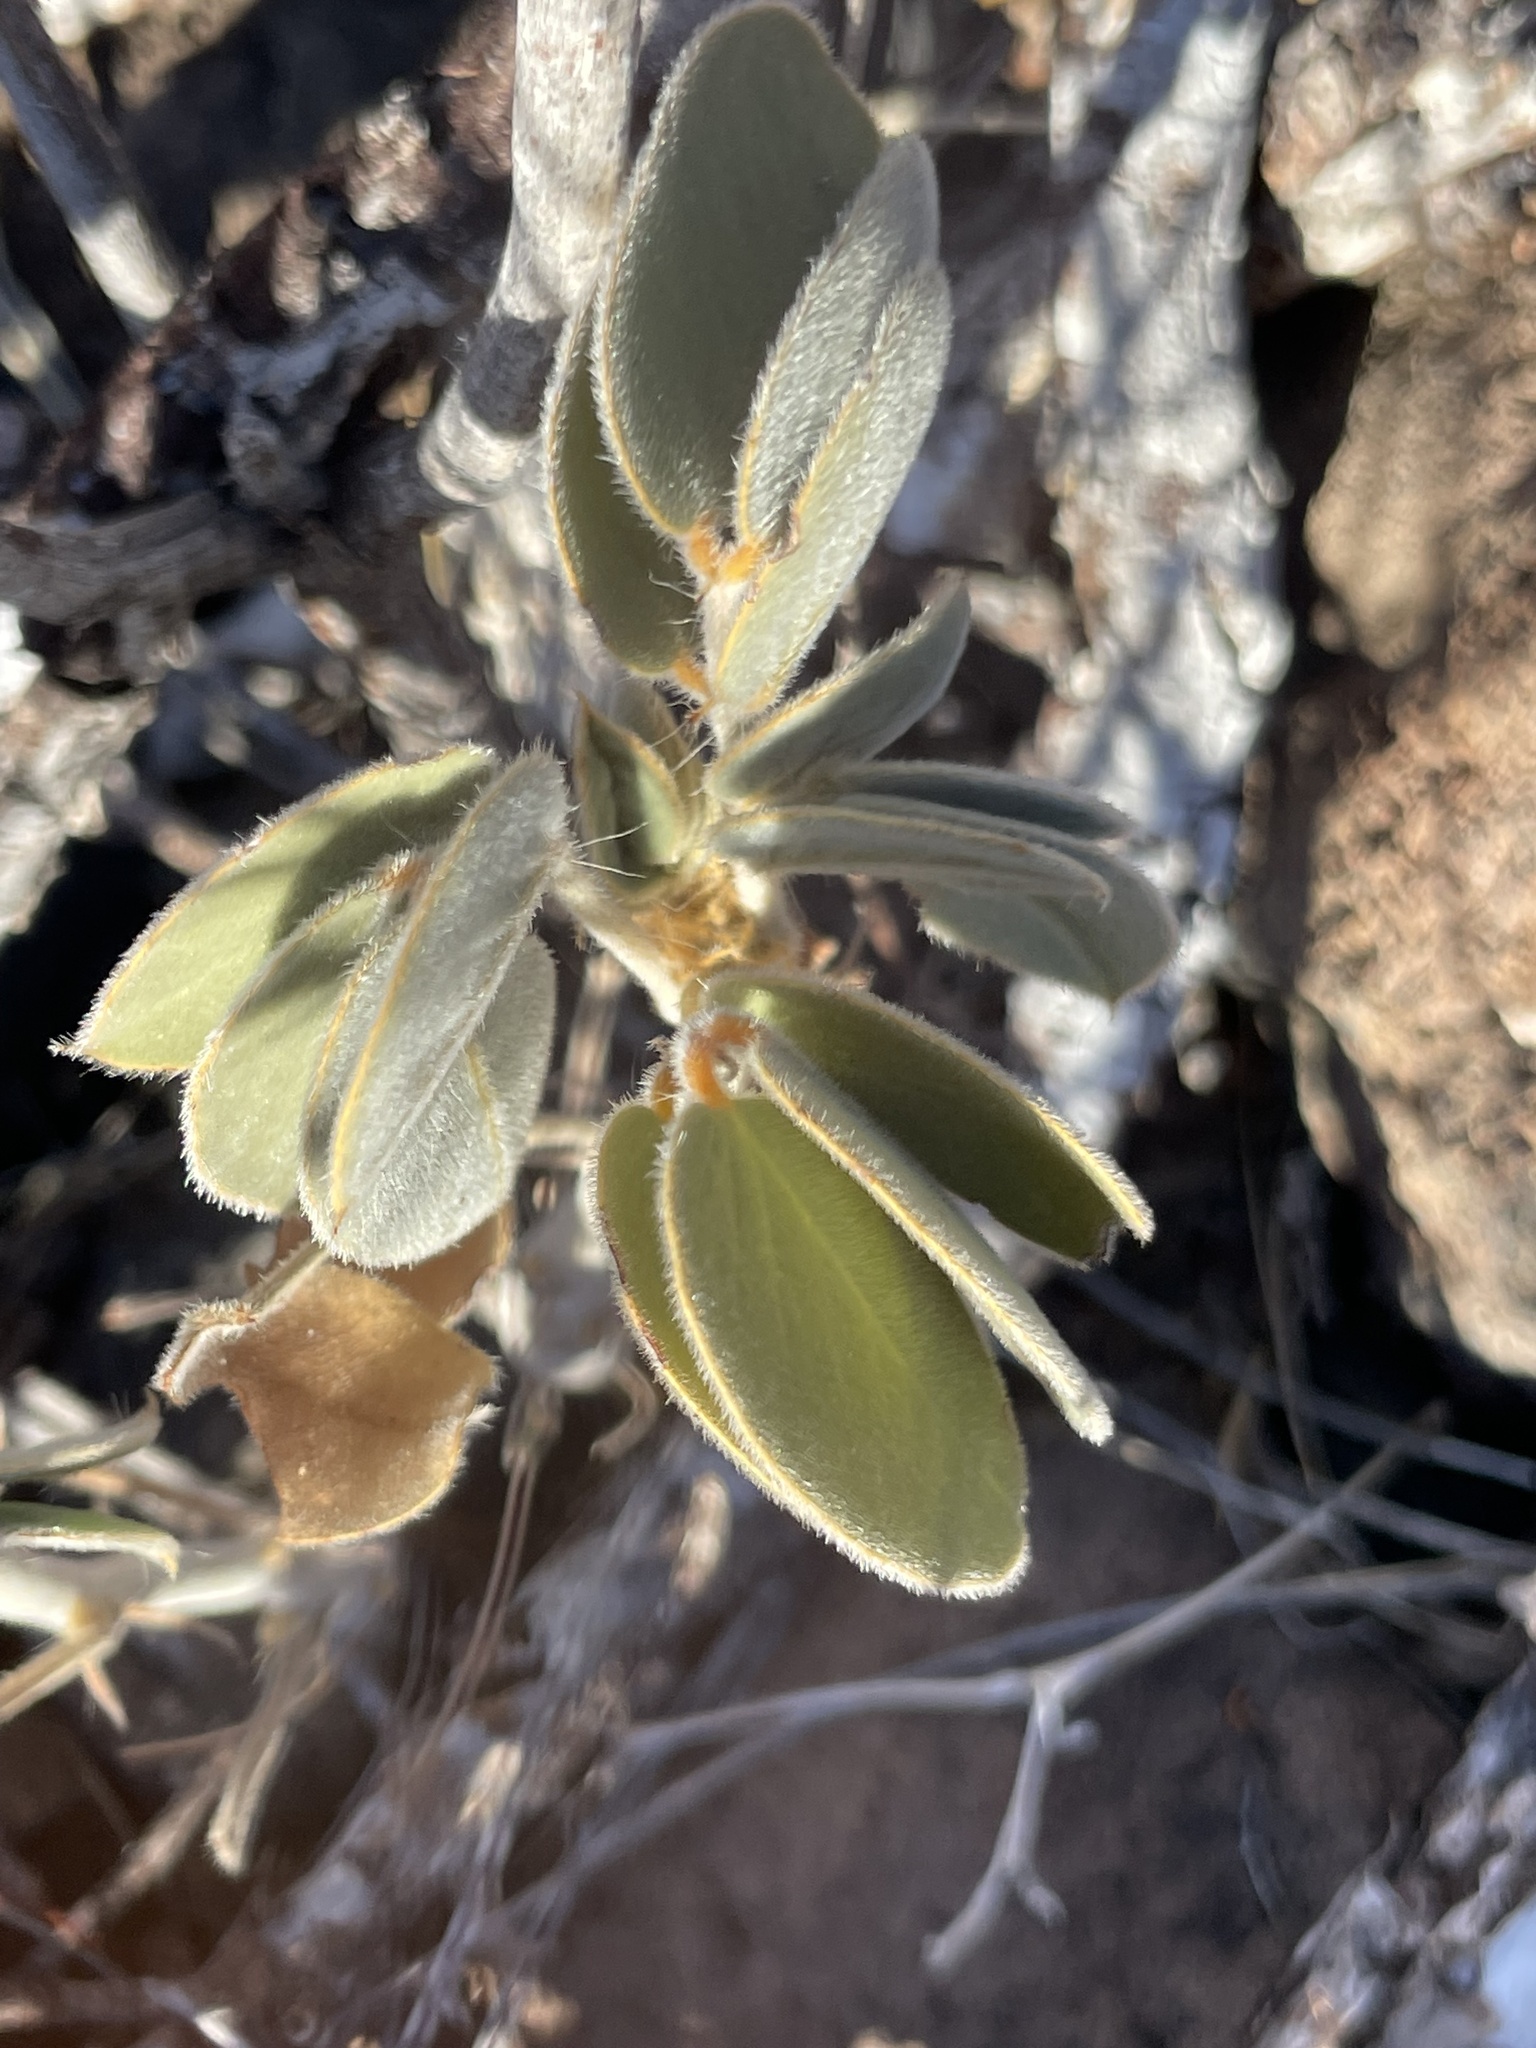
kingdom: Plantae
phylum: Tracheophyta
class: Magnoliopsida
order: Fabales
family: Fabaceae
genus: Senna
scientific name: Senna confinis
